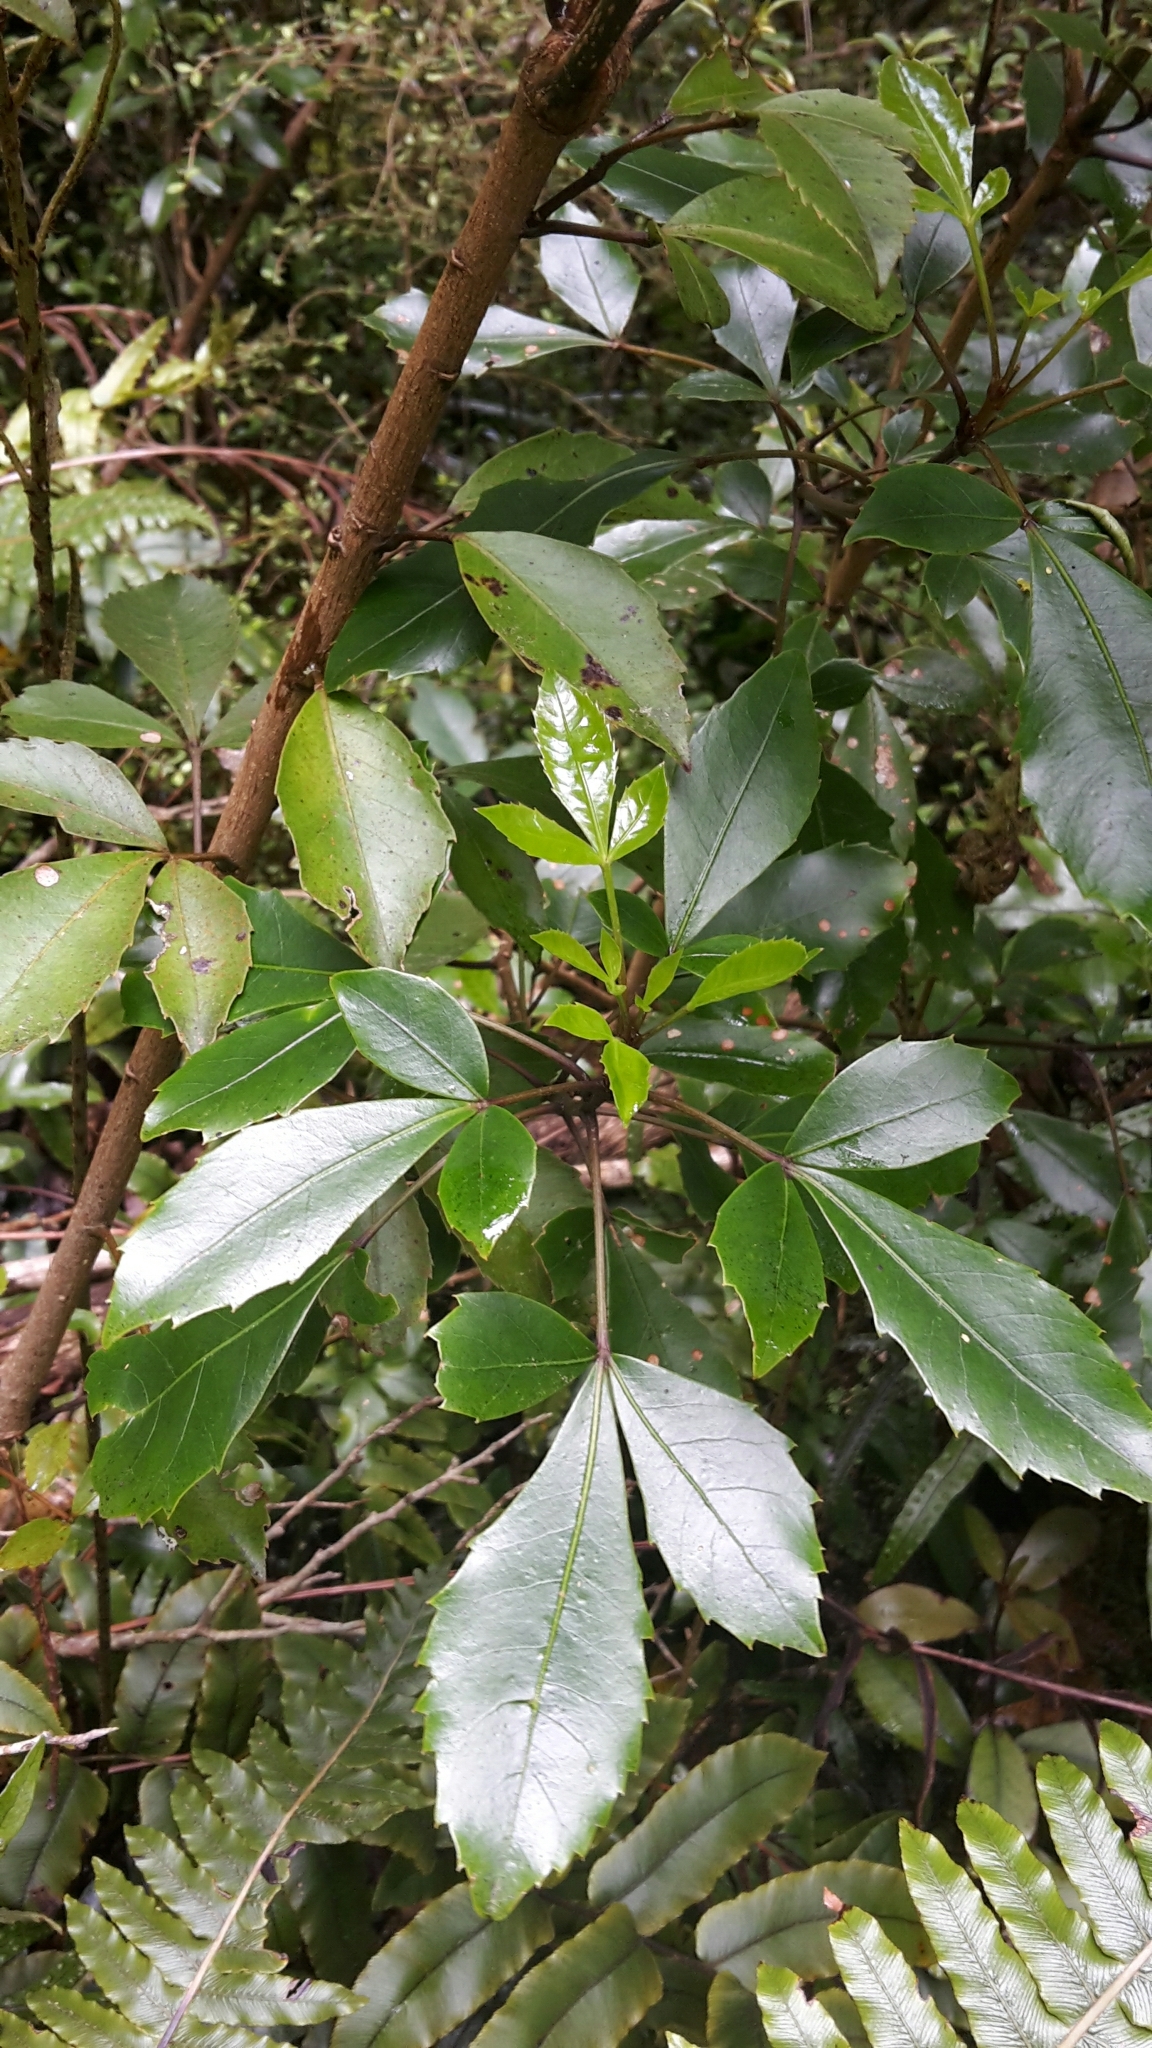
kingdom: Plantae
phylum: Tracheophyta
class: Magnoliopsida
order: Apiales
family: Araliaceae
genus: Raukaua
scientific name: Raukaua simplex
